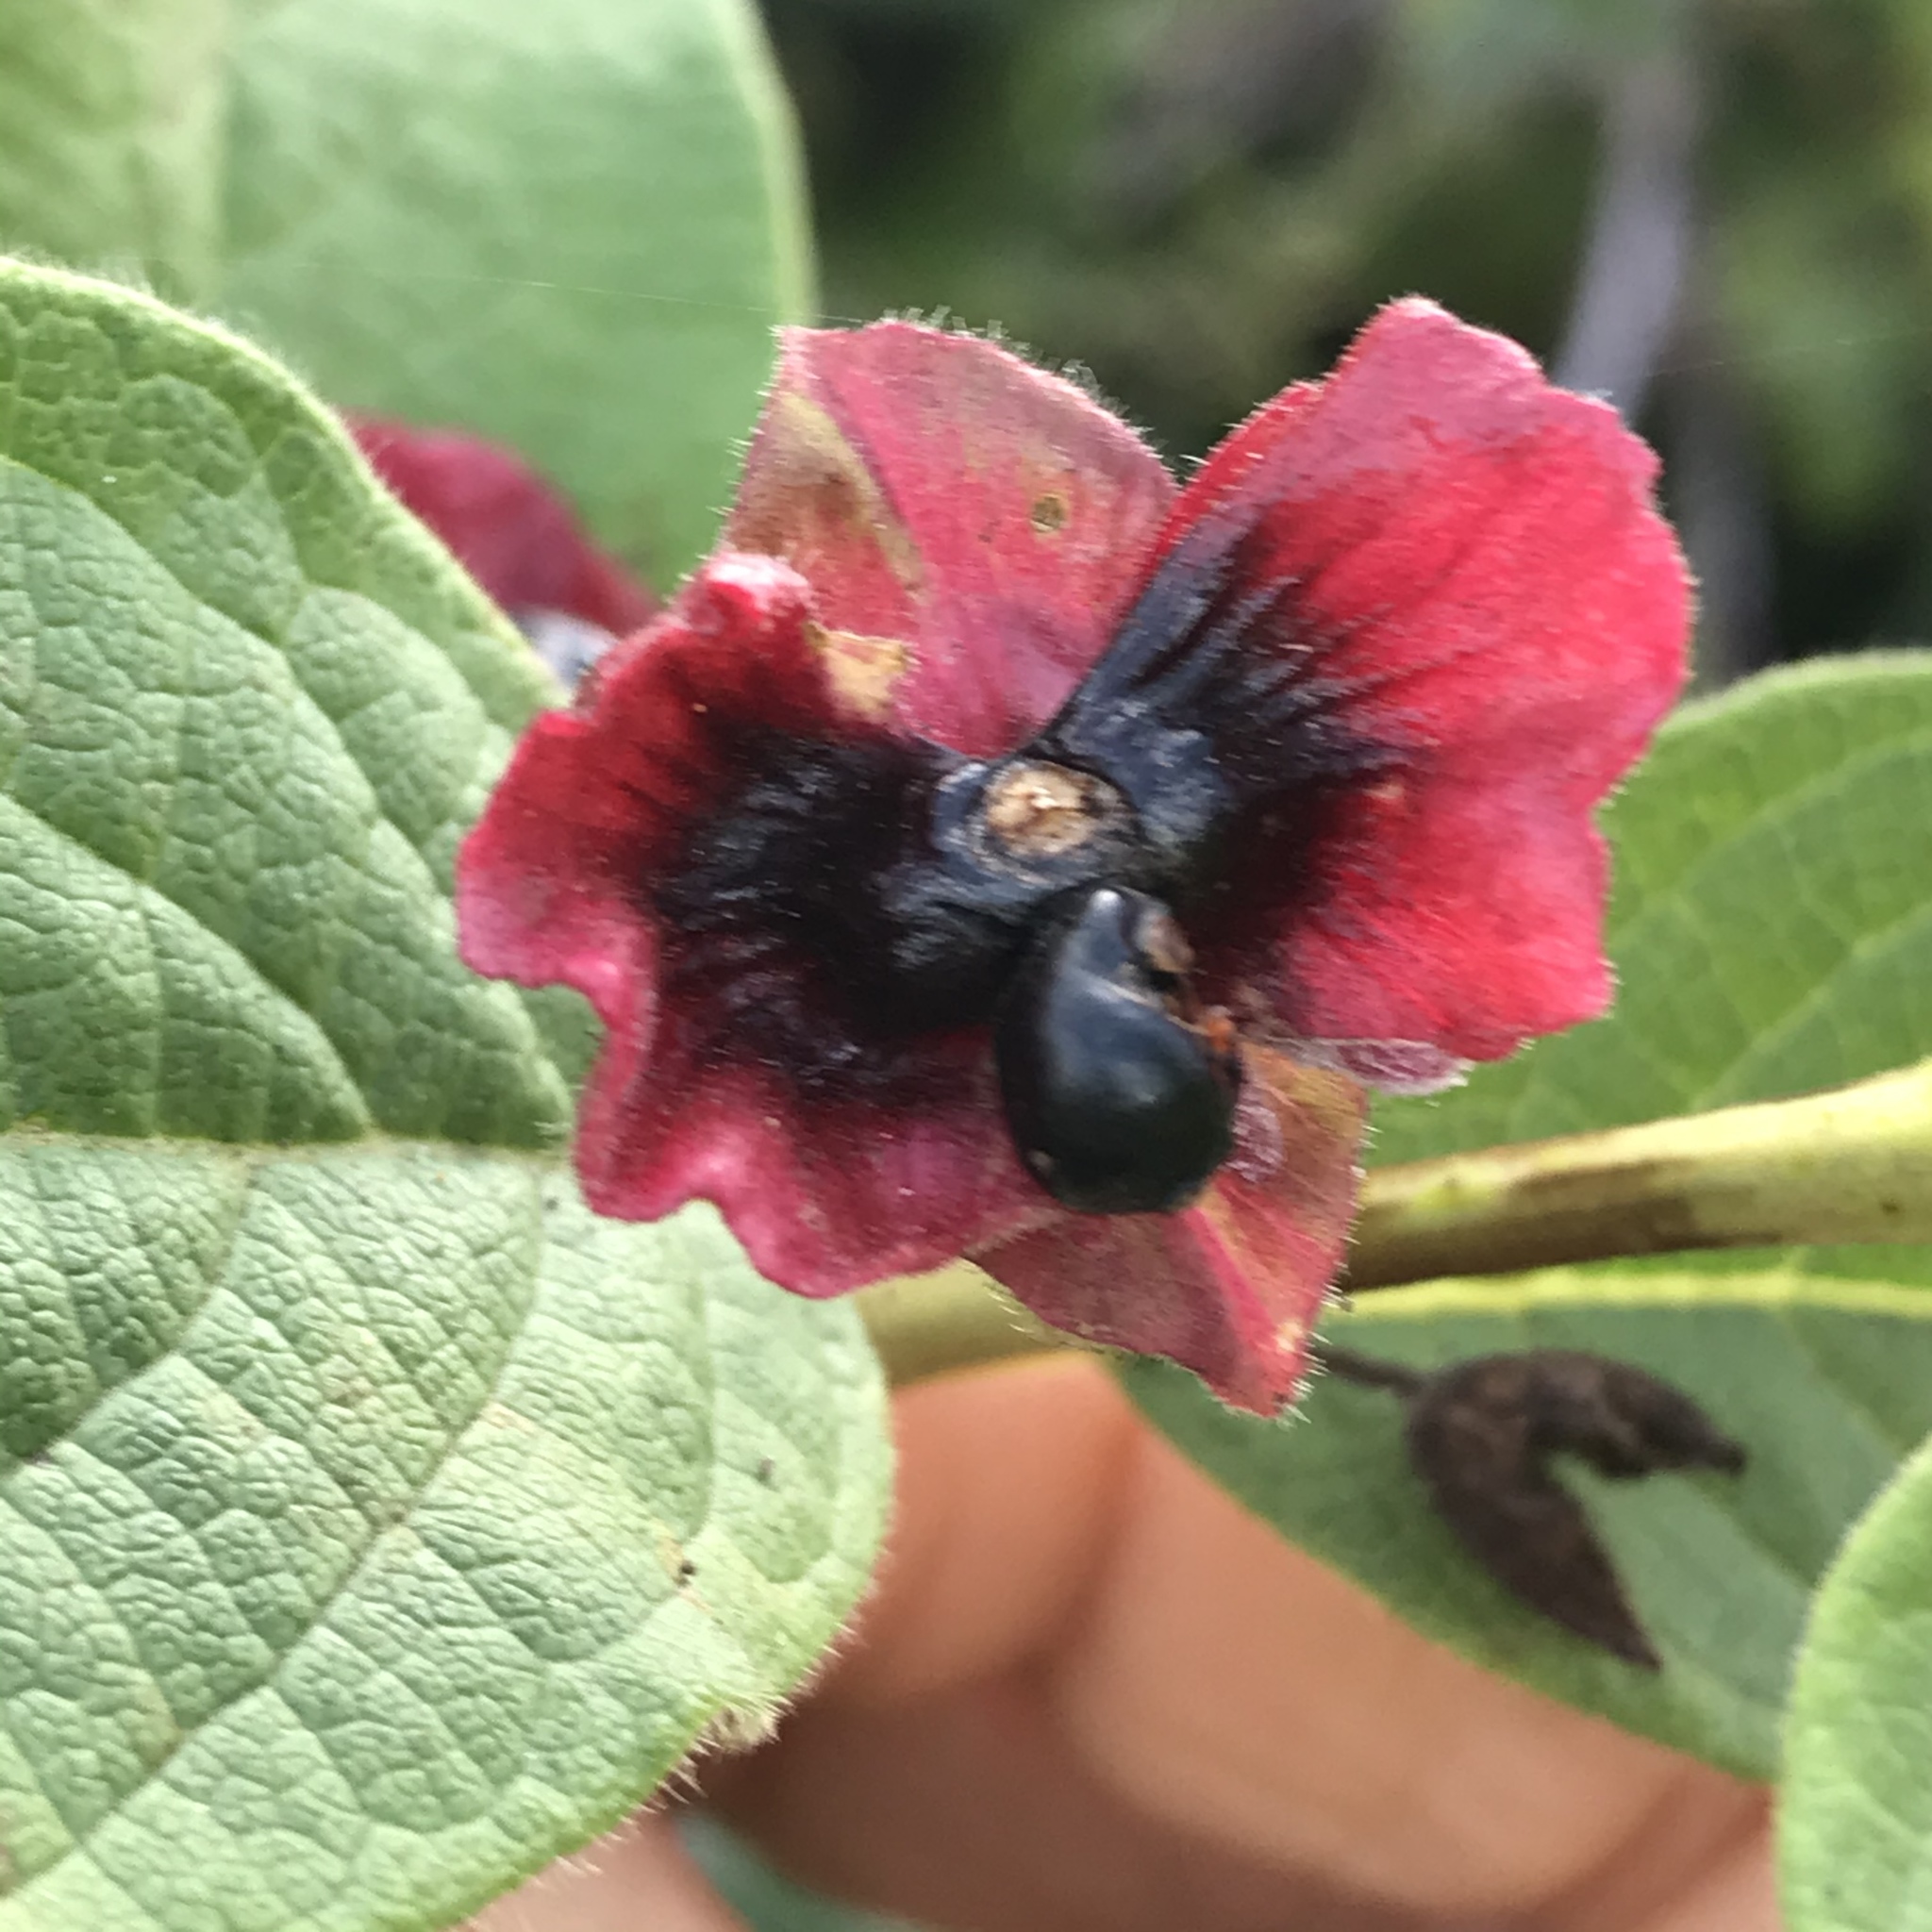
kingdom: Plantae
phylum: Tracheophyta
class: Magnoliopsida
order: Dipsacales
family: Caprifoliaceae
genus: Lonicera
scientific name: Lonicera involucrata
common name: Californian honeysuckle
